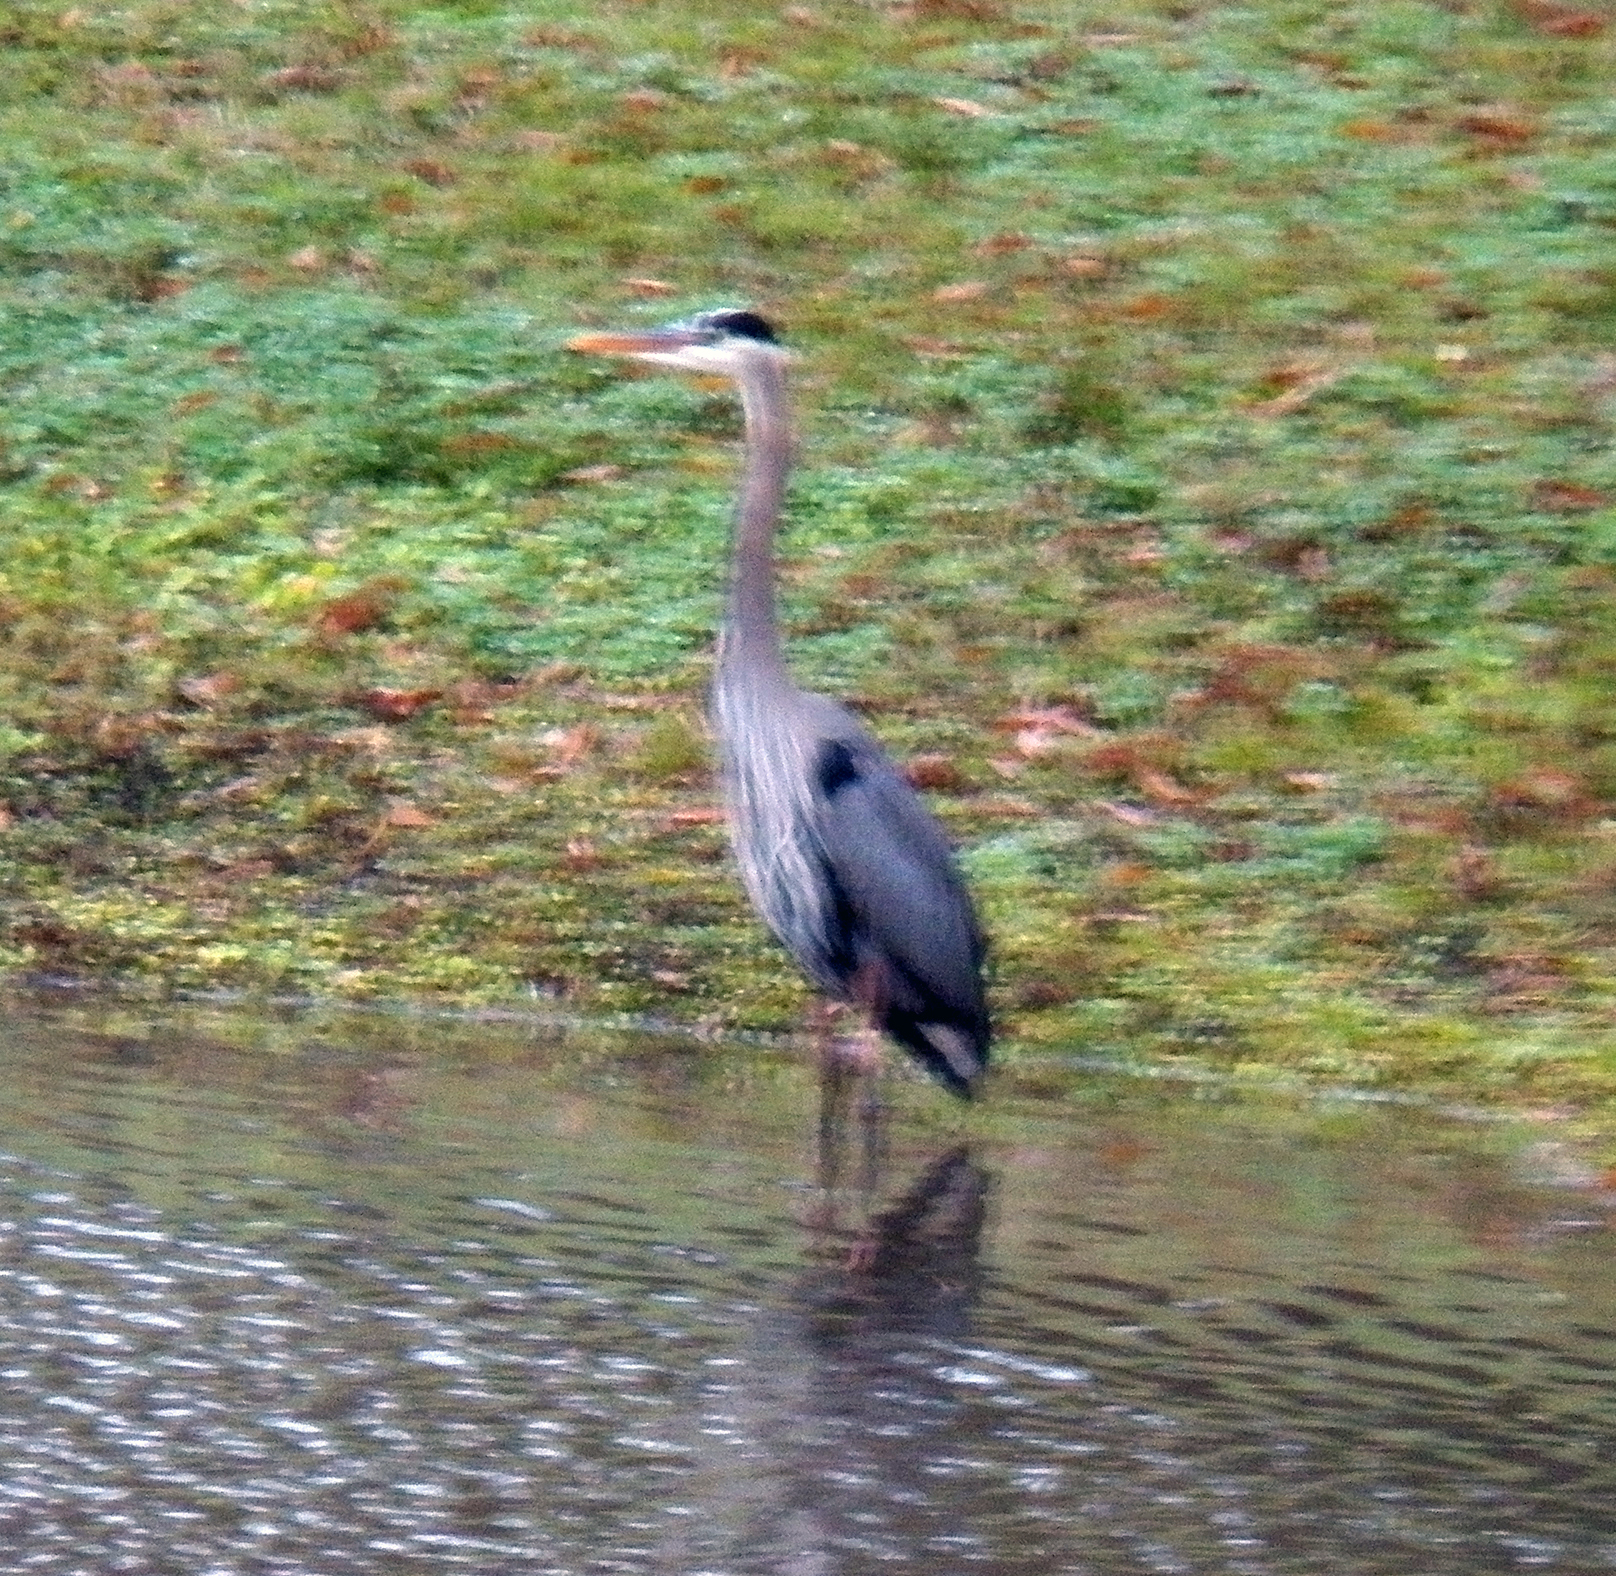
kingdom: Animalia
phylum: Chordata
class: Aves
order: Pelecaniformes
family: Ardeidae
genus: Ardea
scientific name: Ardea herodias
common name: Great blue heron
